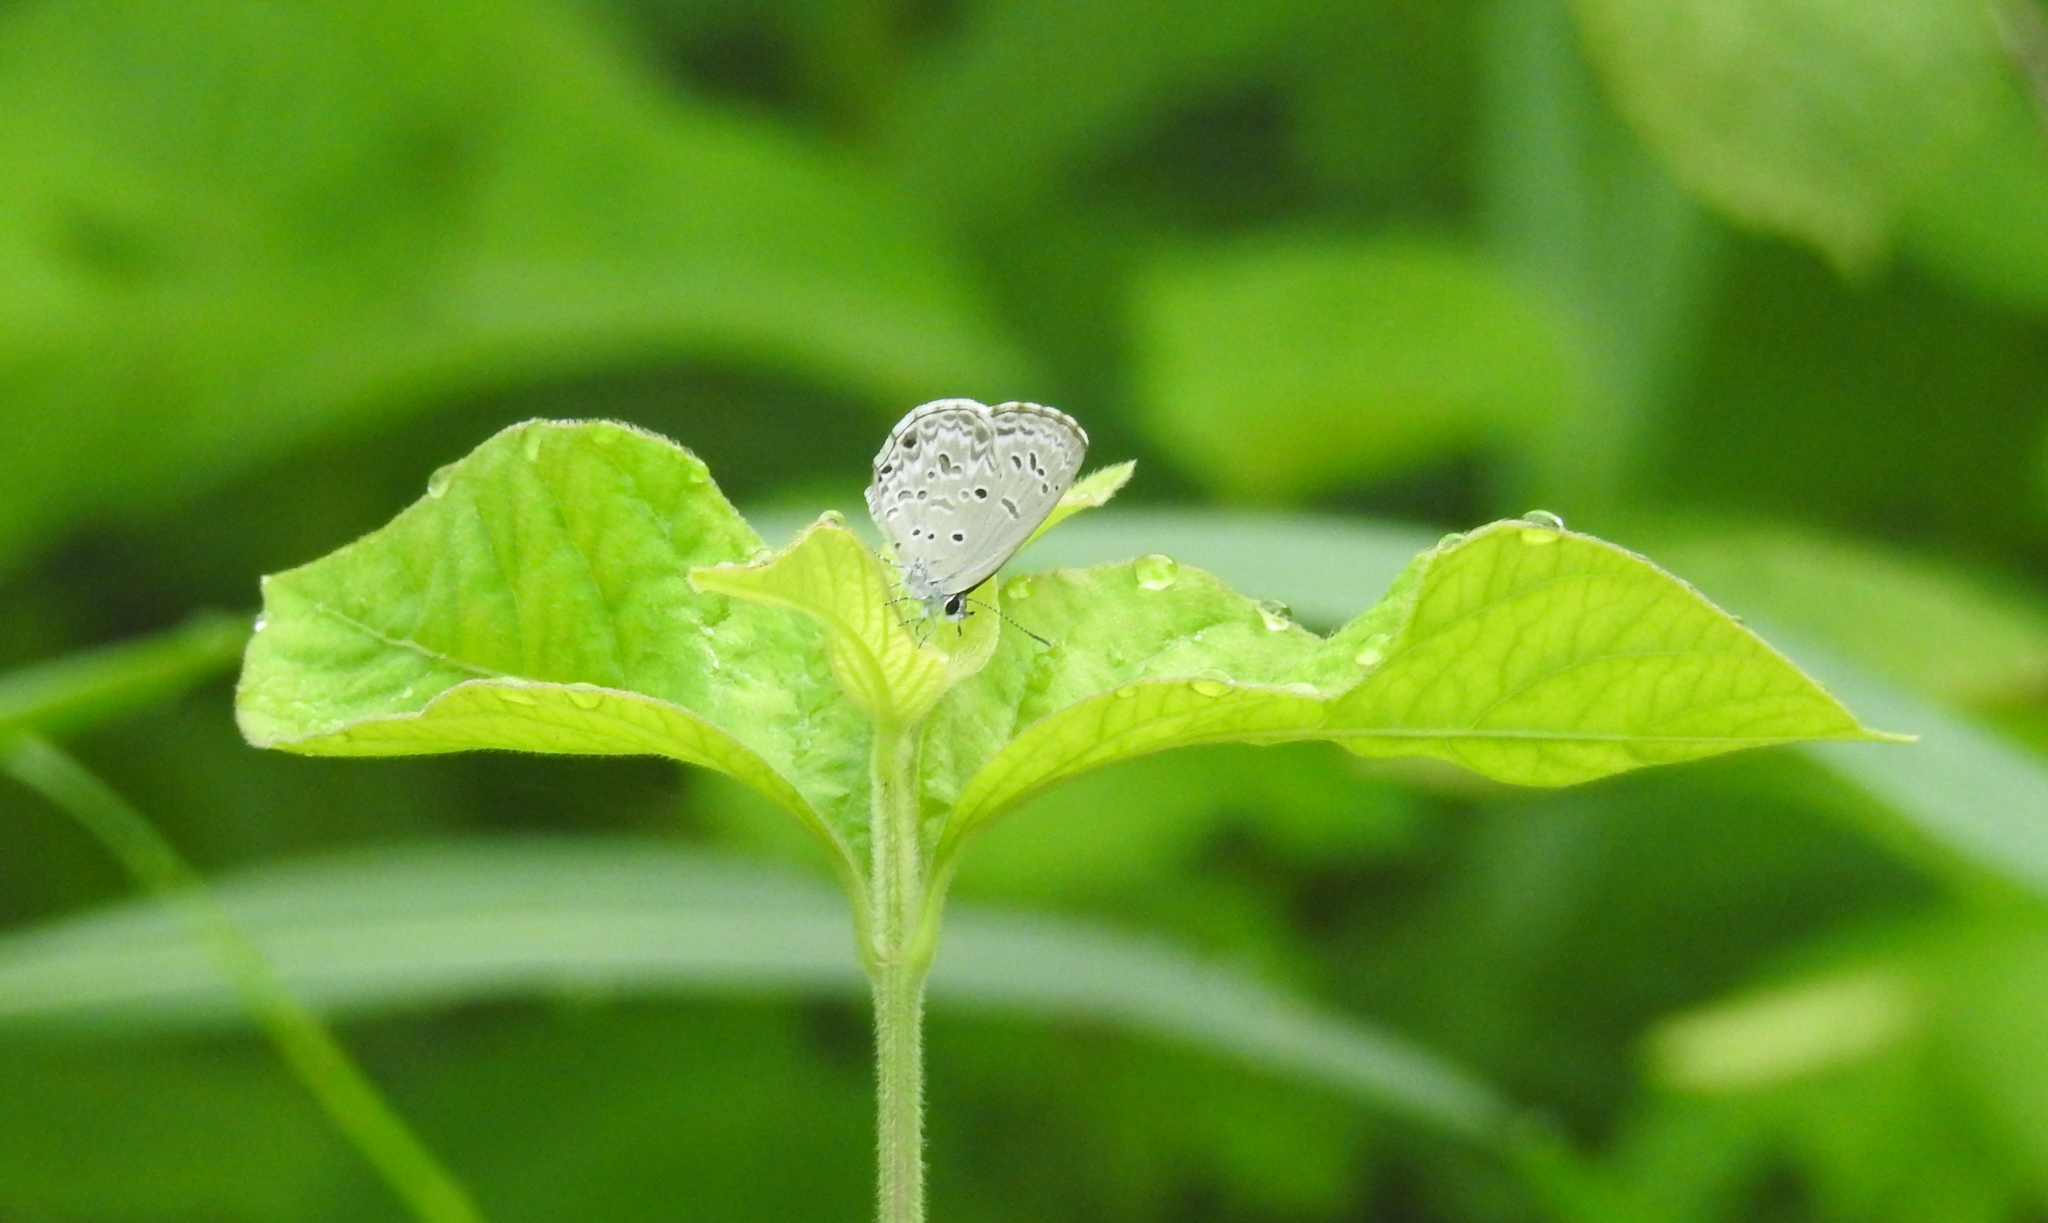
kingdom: Animalia
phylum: Arthropoda
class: Insecta
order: Lepidoptera
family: Lycaenidae
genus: Chilades
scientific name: Chilades laius
